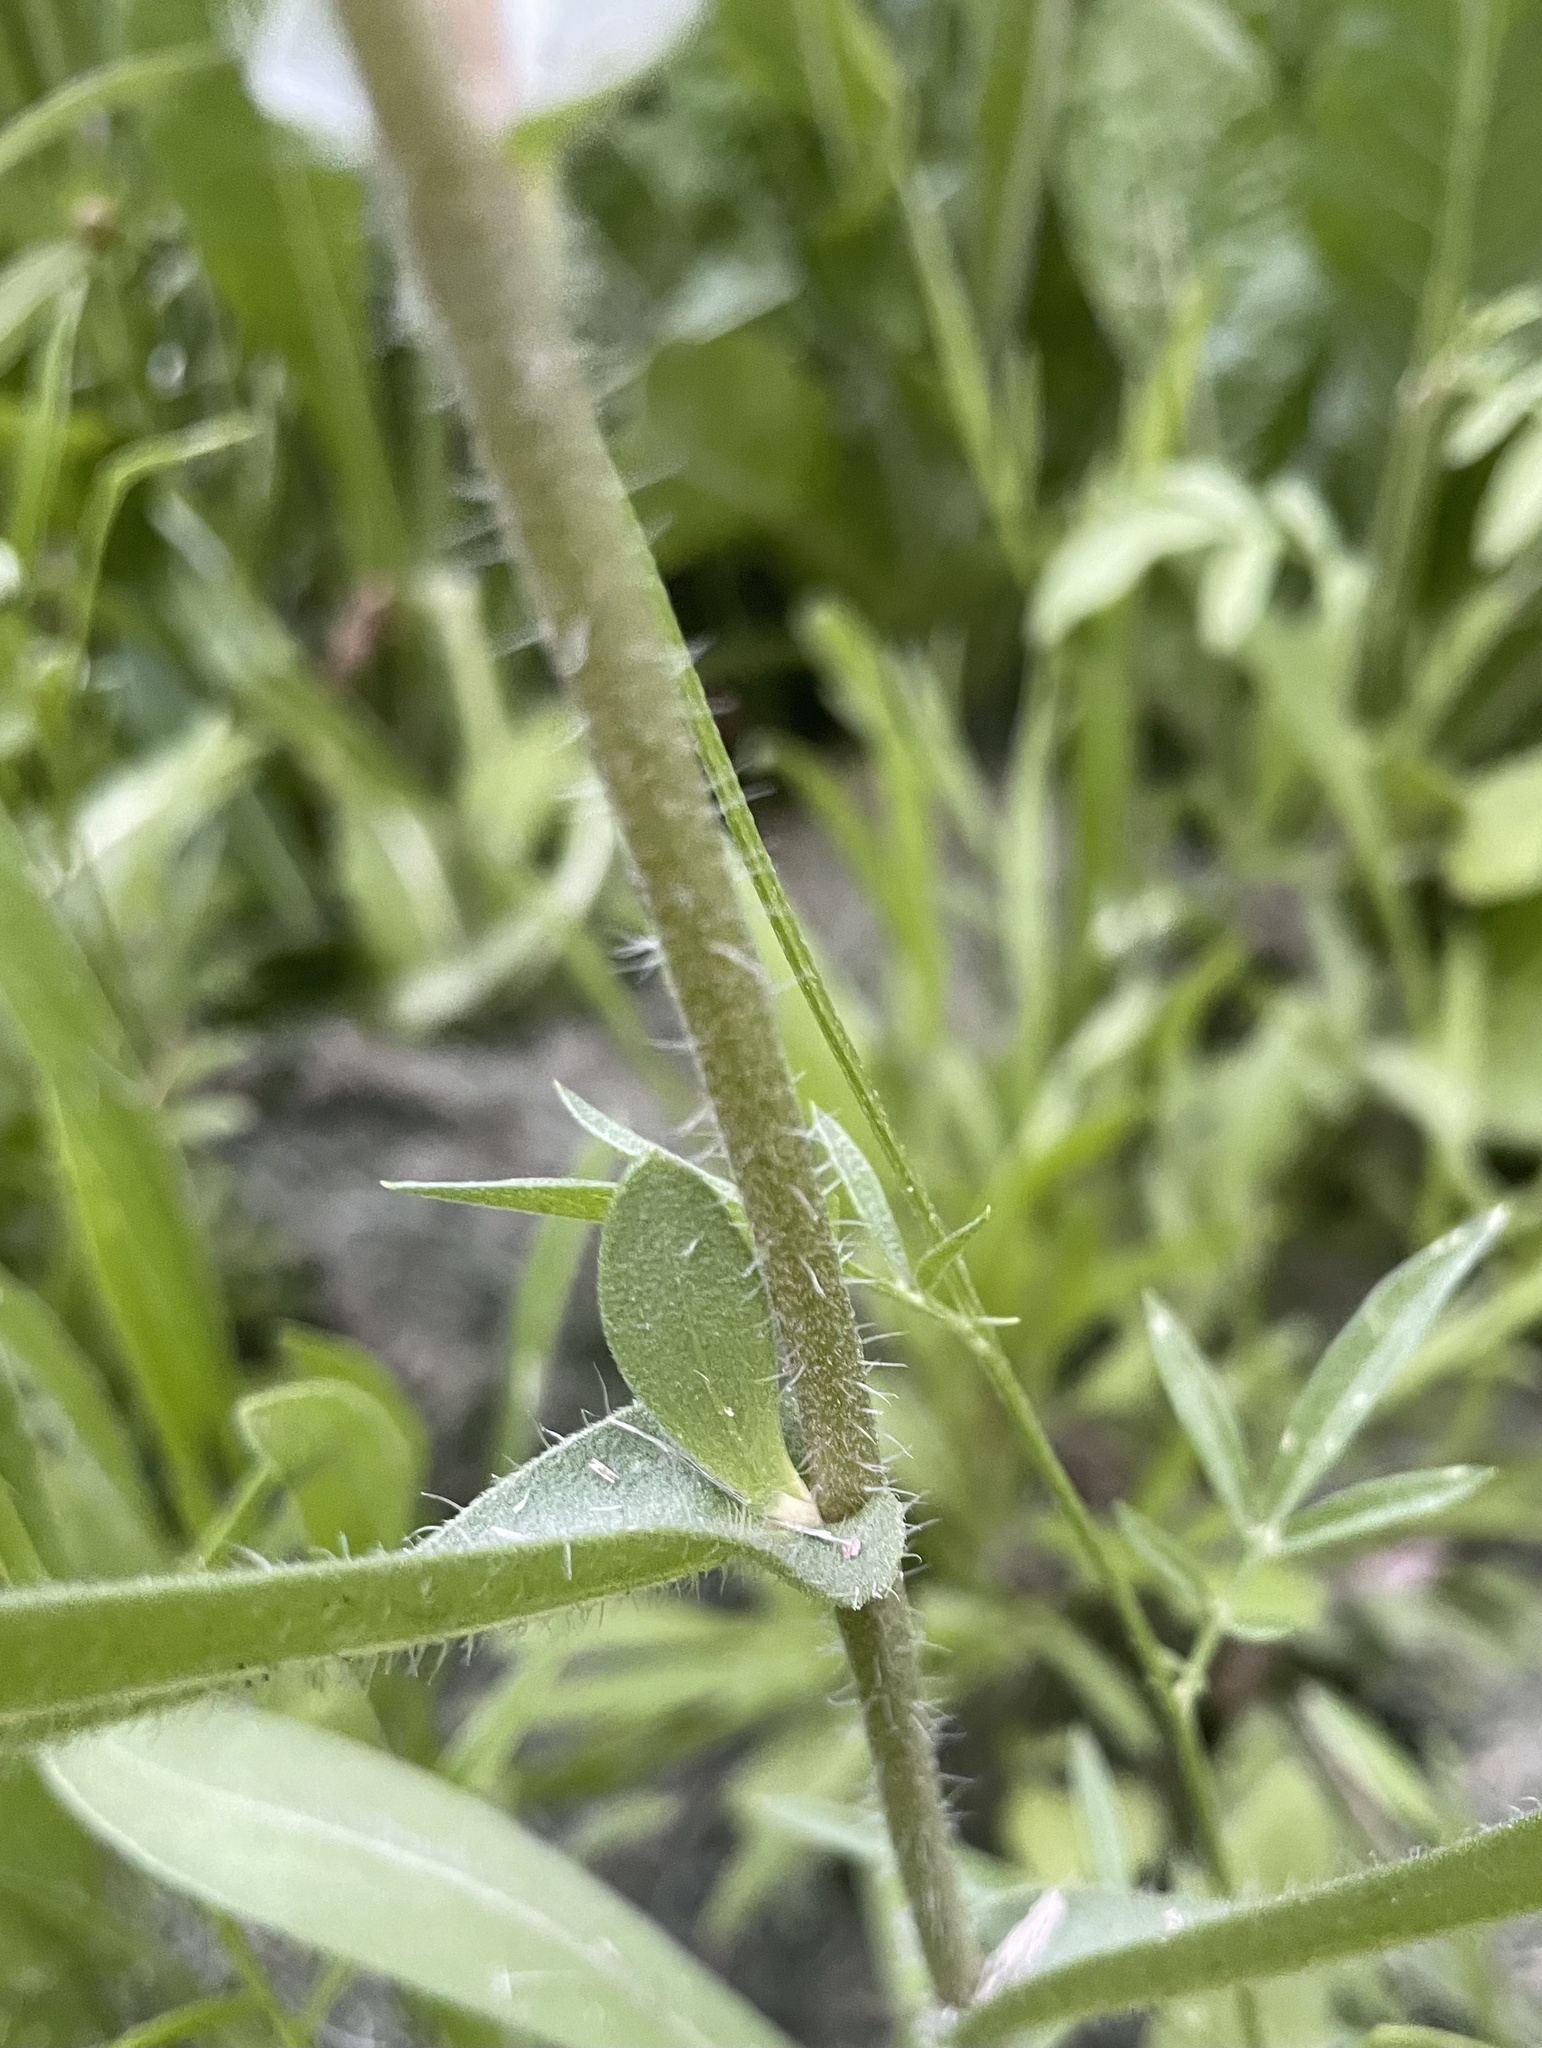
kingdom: Plantae
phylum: Tracheophyta
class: Magnoliopsida
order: Asterales
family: Asteraceae
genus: Gaillardia
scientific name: Gaillardia pulchella
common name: Firewheel
